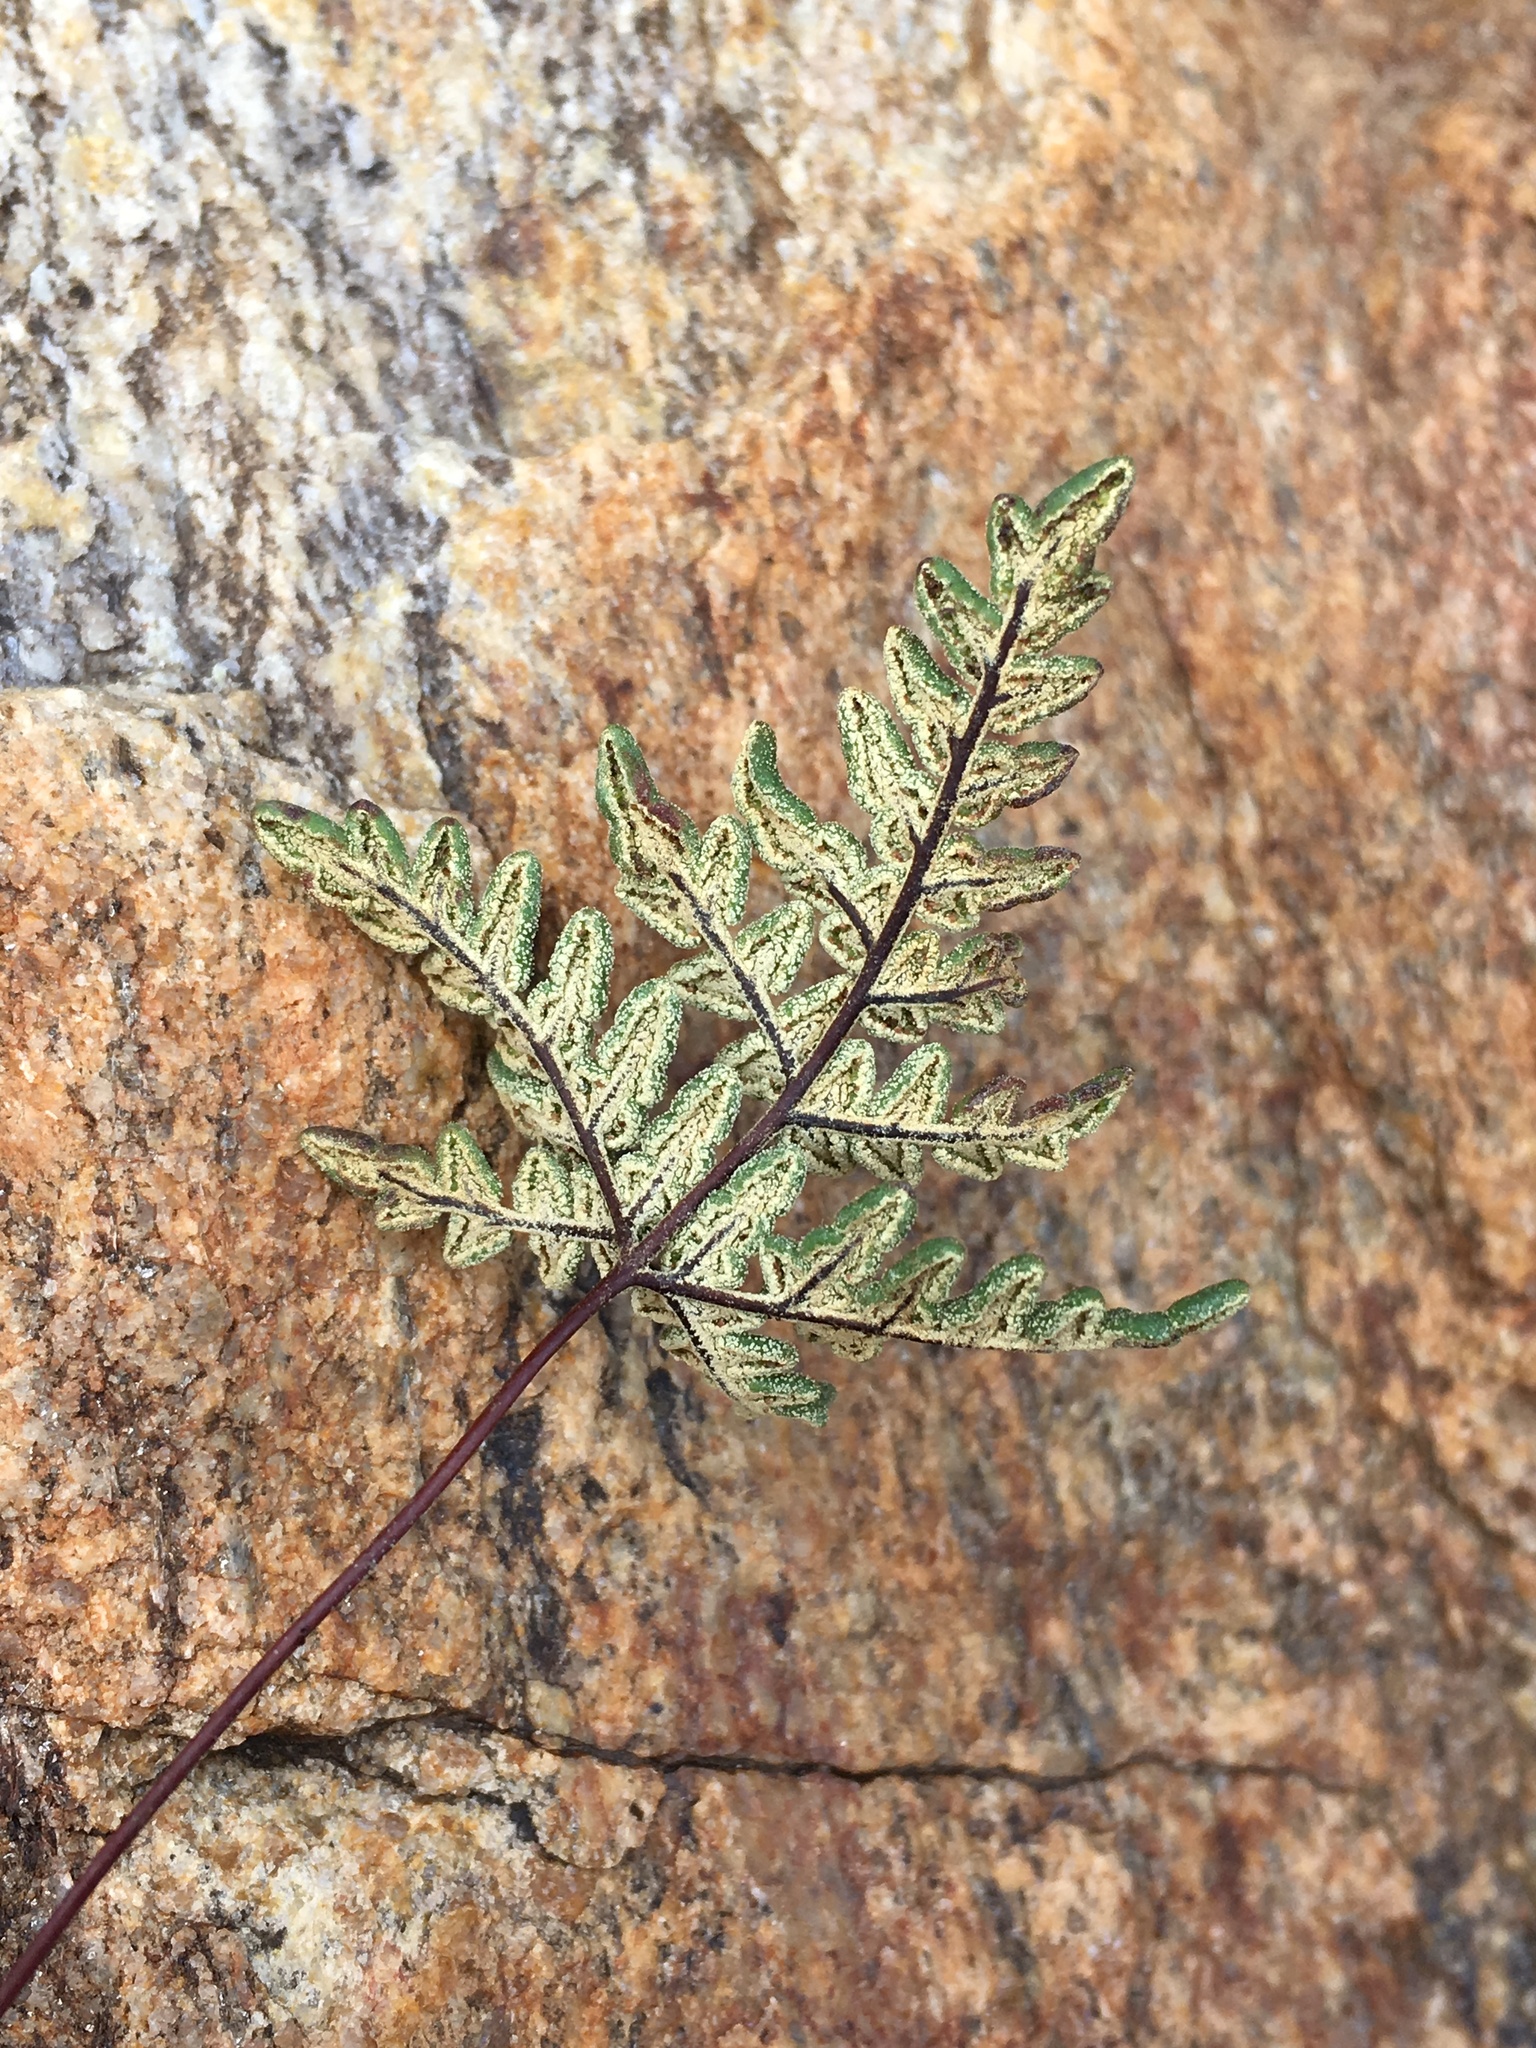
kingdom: Plantae
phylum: Tracheophyta
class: Polypodiopsida
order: Polypodiales
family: Pteridaceae
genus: Notholaena
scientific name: Notholaena californica
